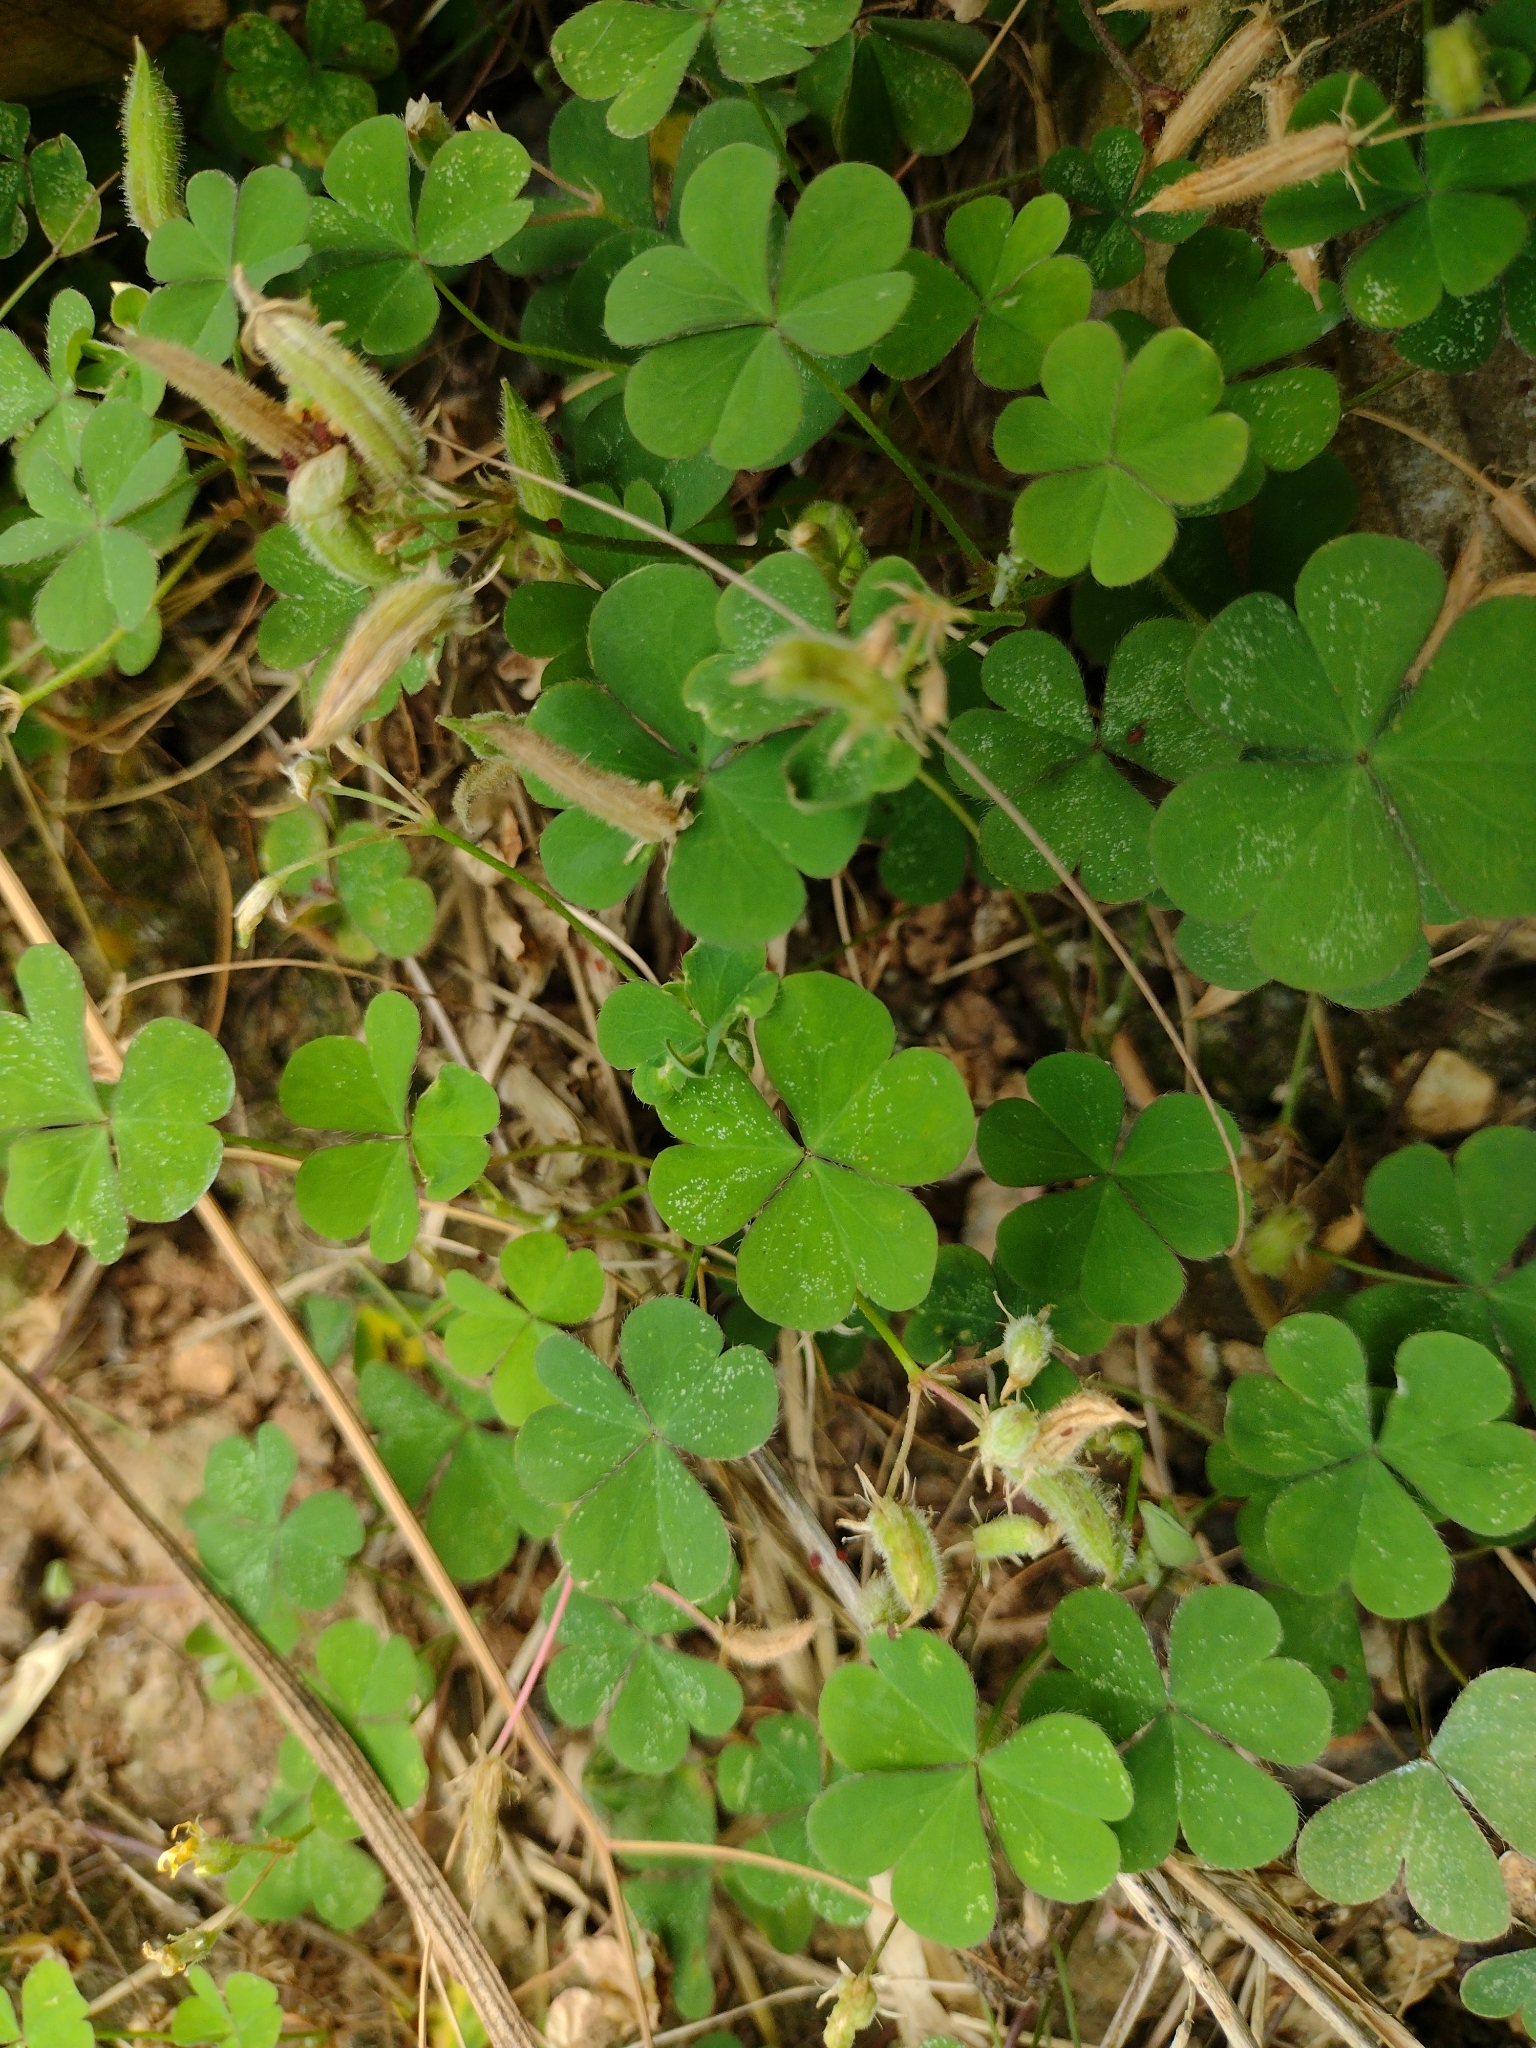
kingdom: Plantae
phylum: Tracheophyta
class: Magnoliopsida
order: Oxalidales
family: Oxalidaceae
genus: Oxalis
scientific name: Oxalis corniculata
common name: Procumbent yellow-sorrel
